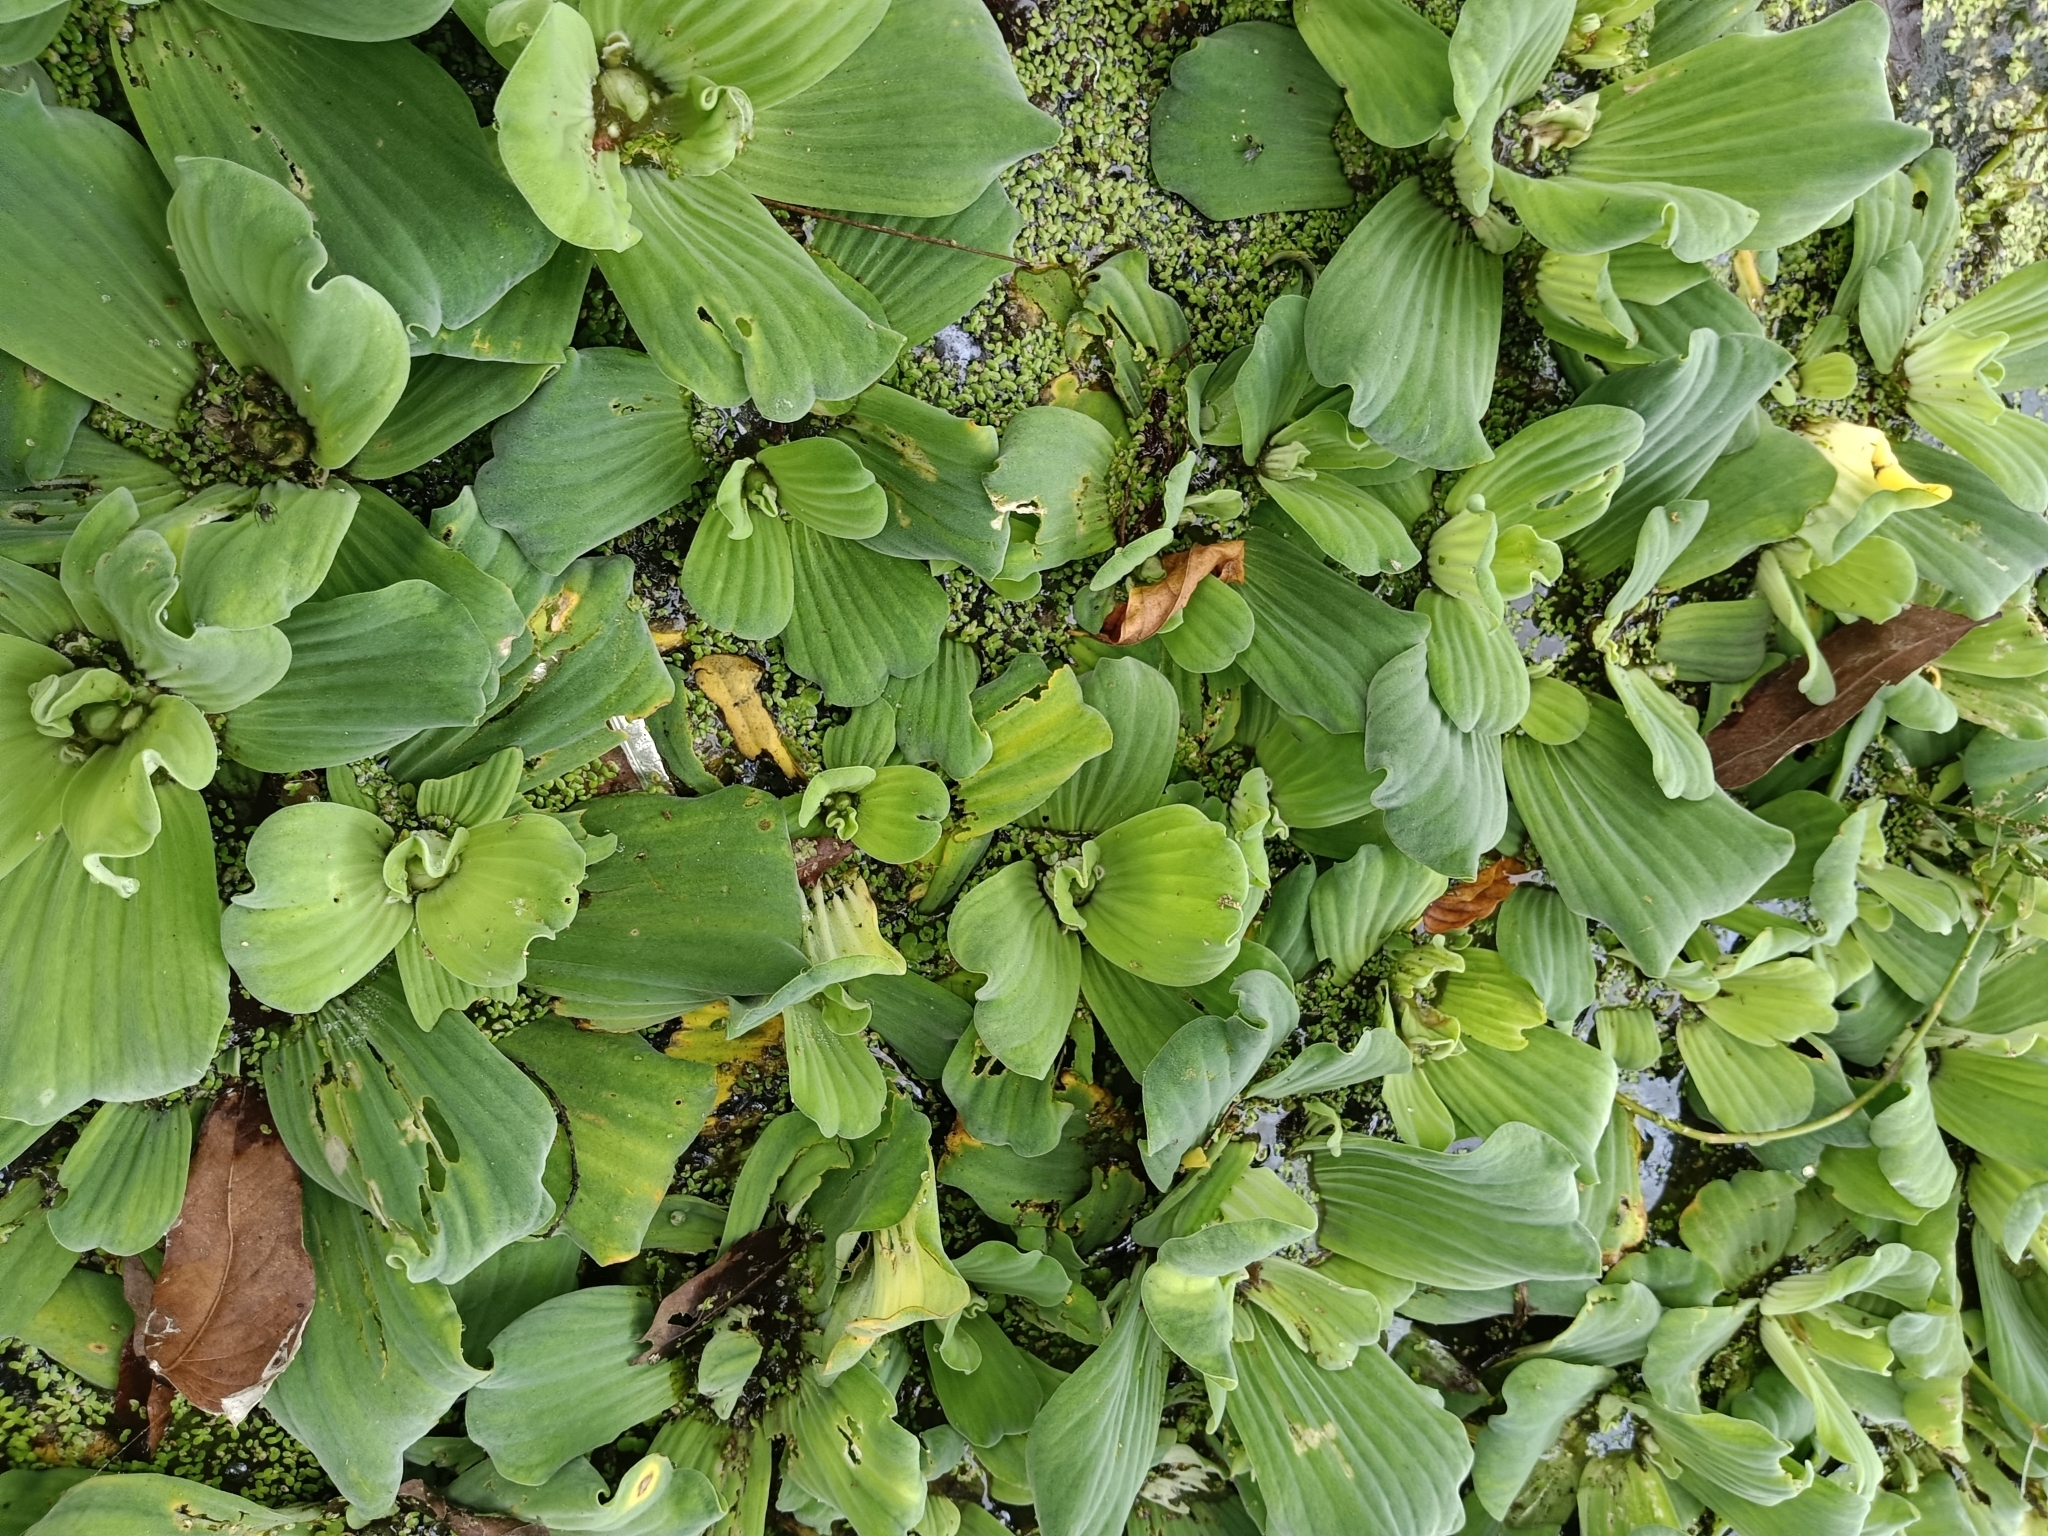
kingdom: Plantae
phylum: Tracheophyta
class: Liliopsida
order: Alismatales
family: Araceae
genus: Pistia
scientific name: Pistia stratiotes
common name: Water lettuce
